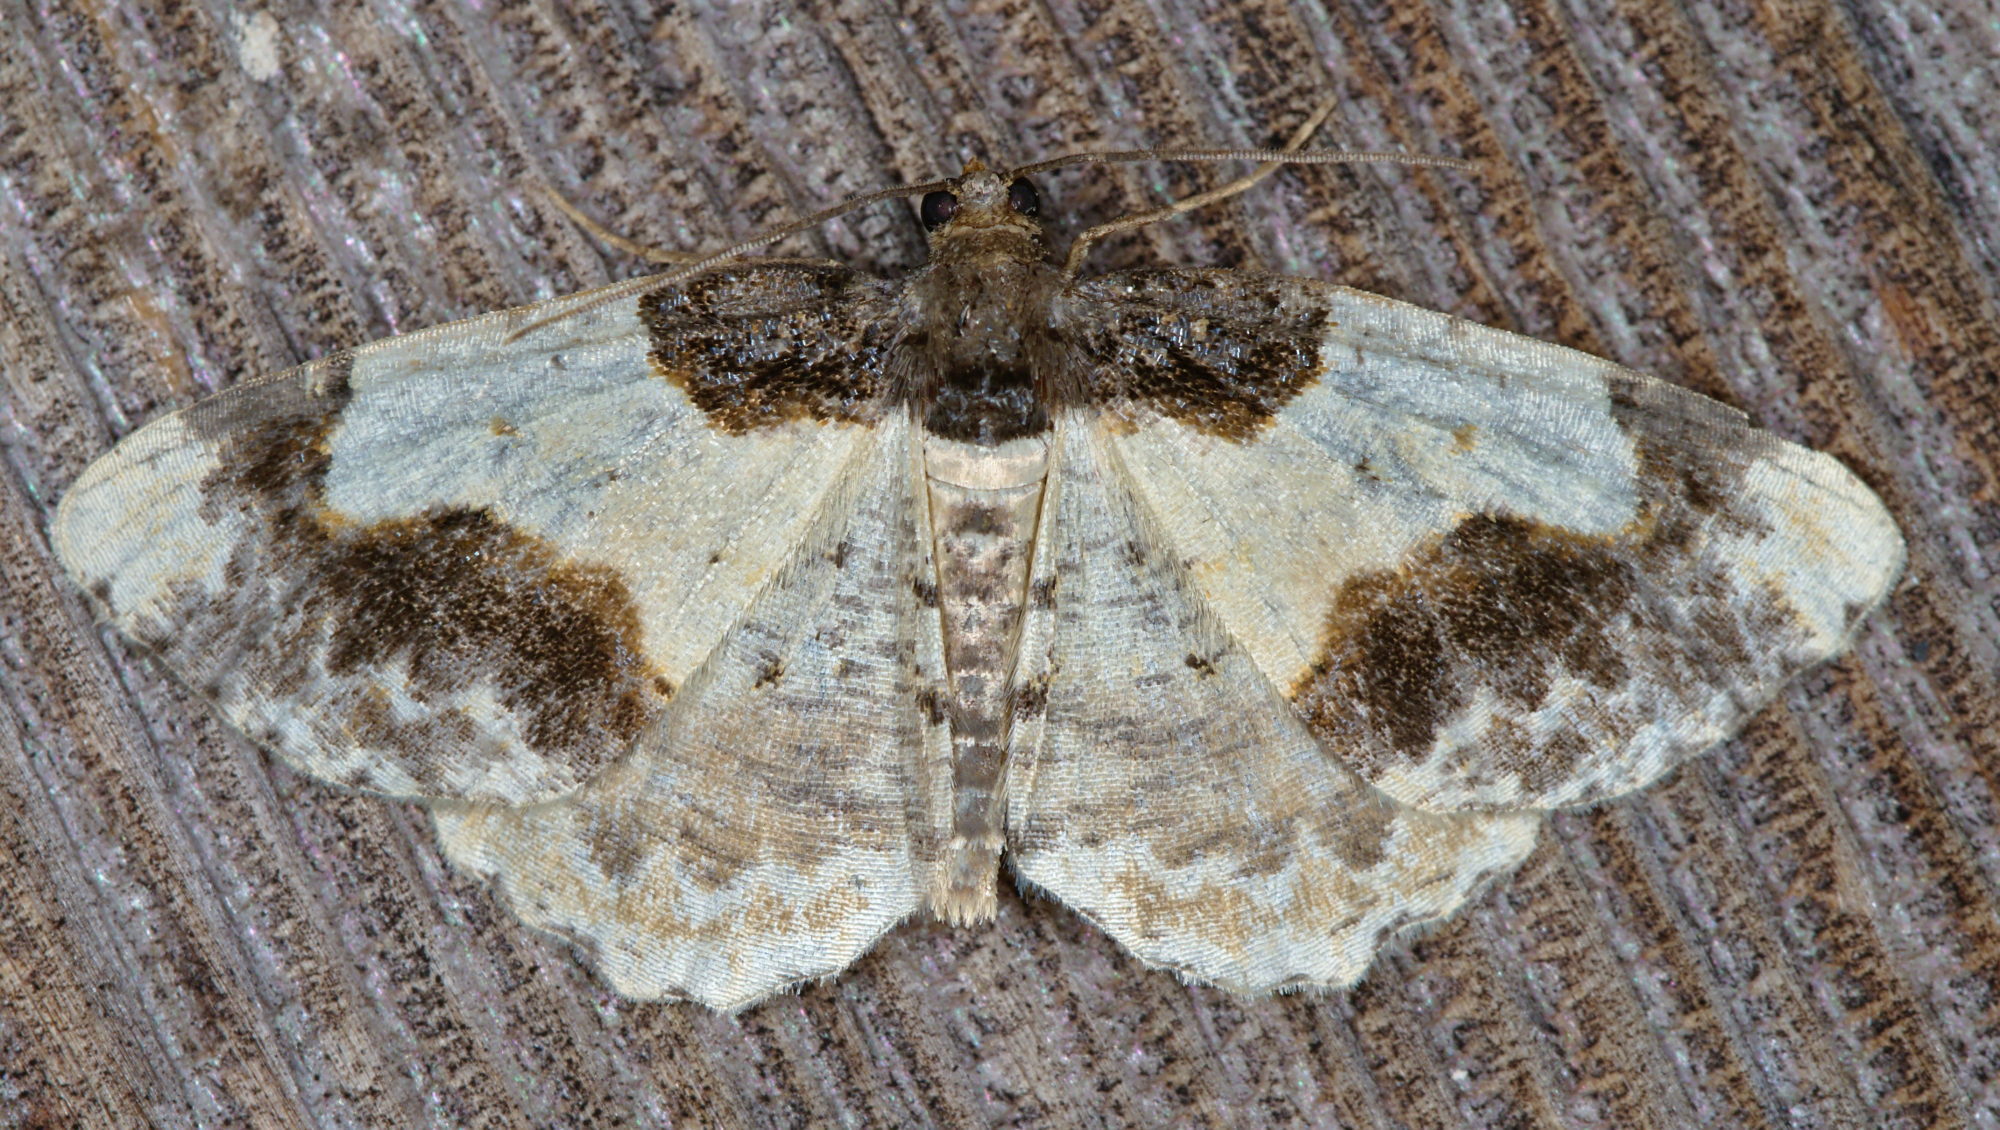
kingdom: Animalia
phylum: Arthropoda
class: Insecta
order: Lepidoptera
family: Geometridae
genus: Ligdia
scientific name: Ligdia adustata
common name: Scorched carpet
